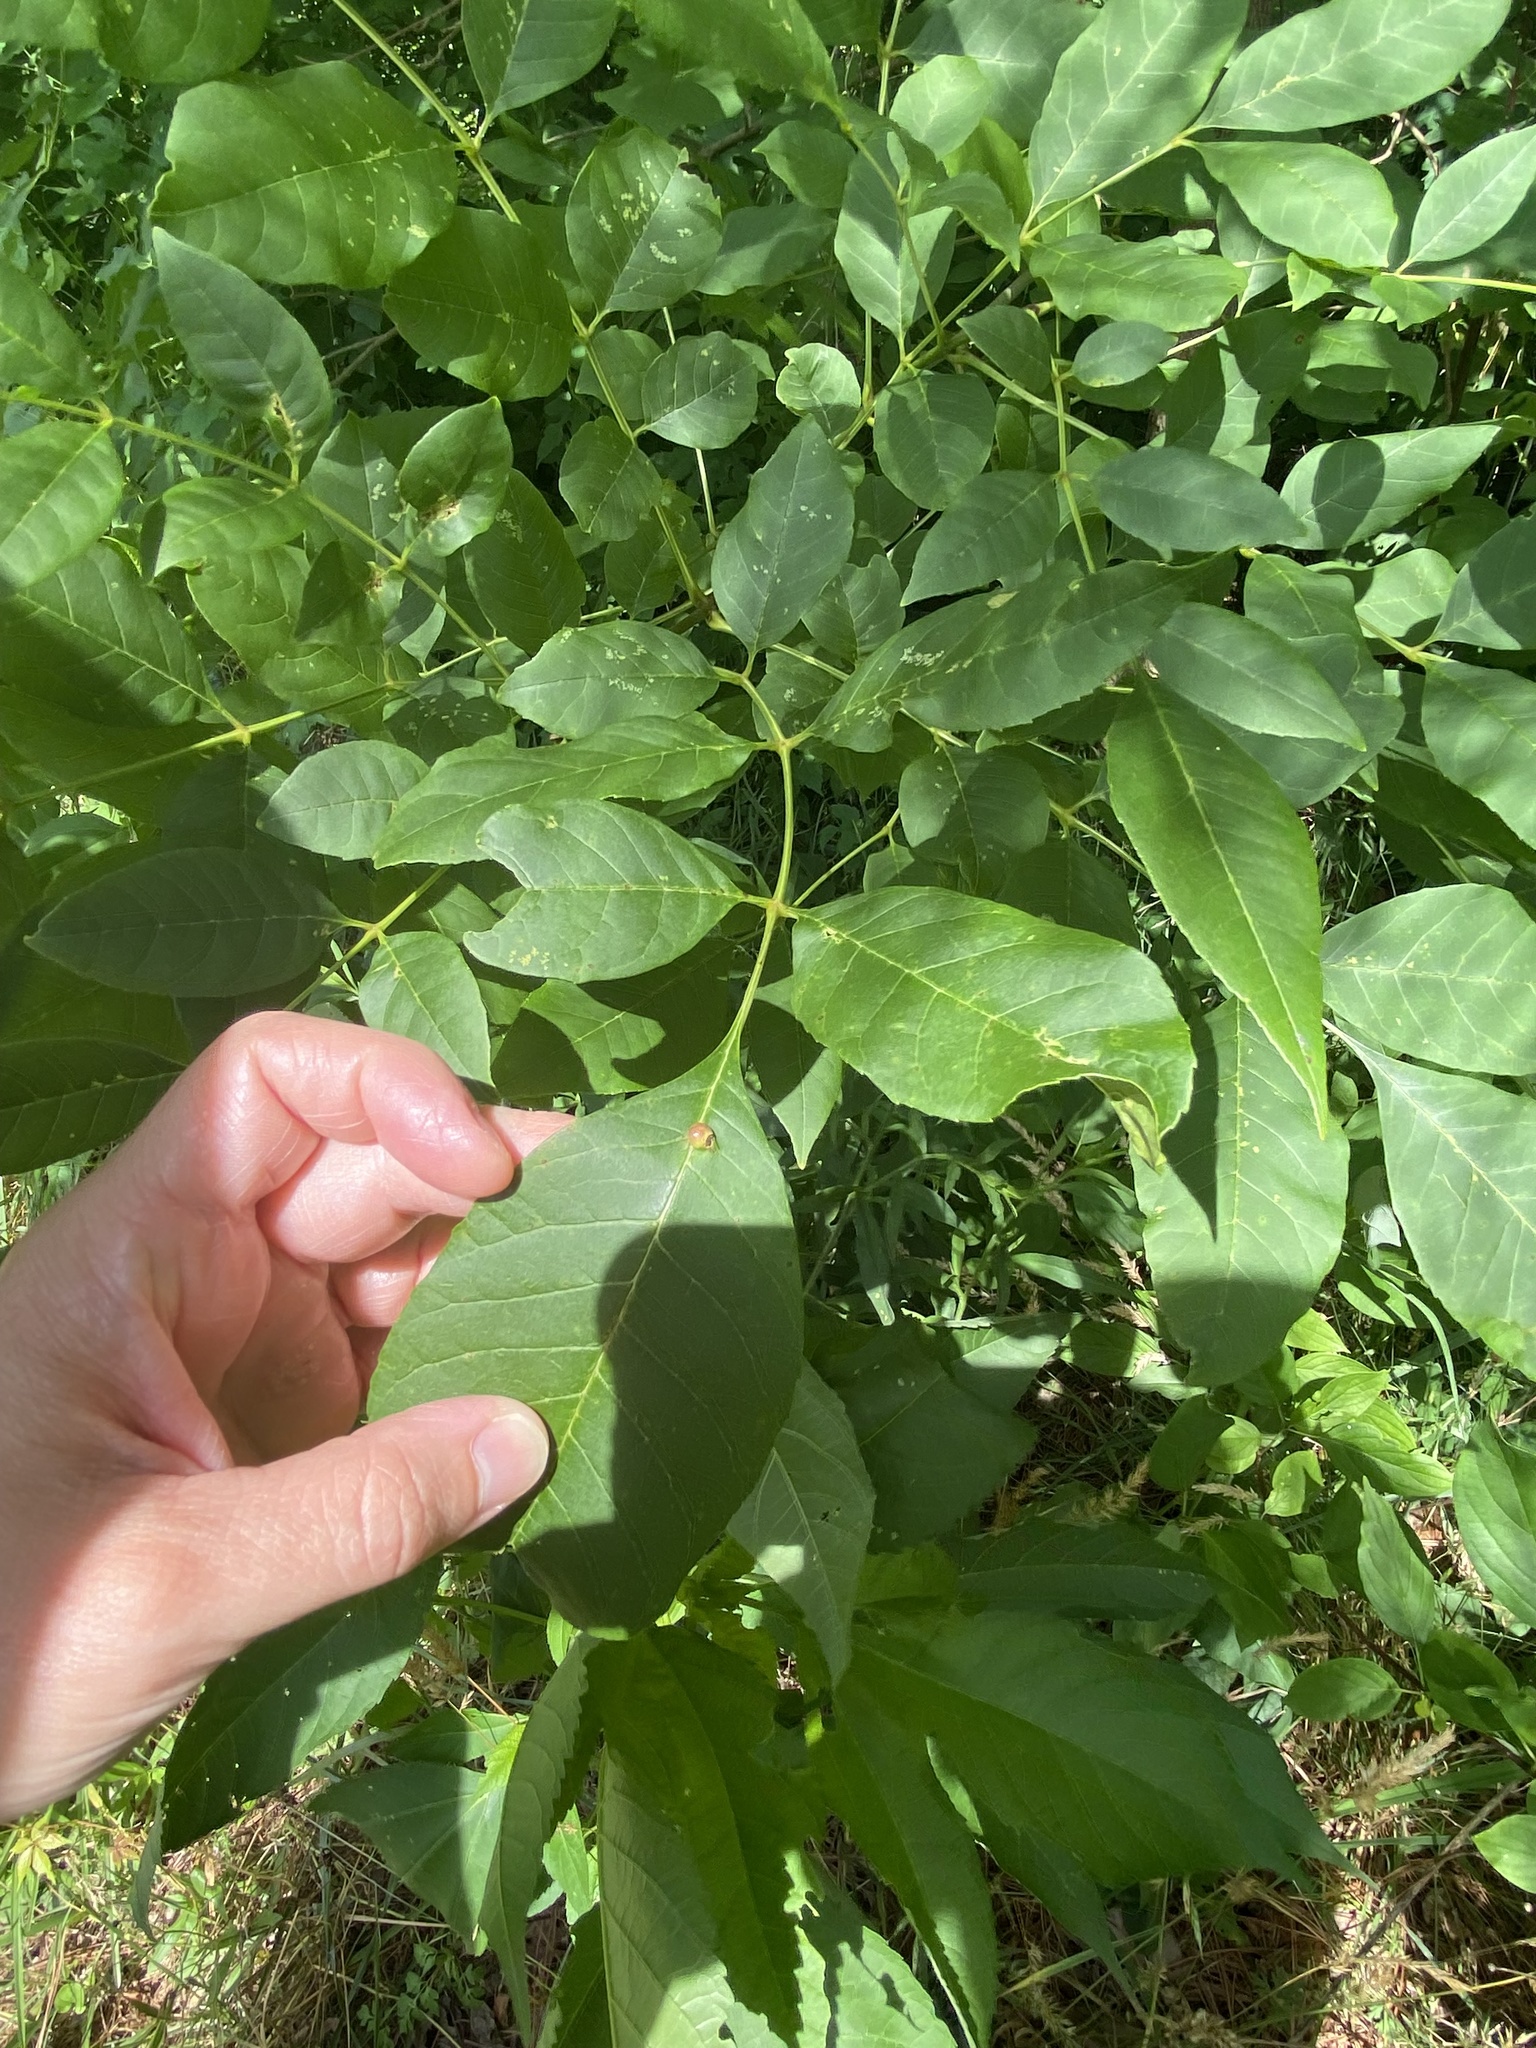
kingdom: Animalia
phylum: Arthropoda
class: Insecta
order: Diptera
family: Cecidomyiidae
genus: Dasineura
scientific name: Dasineura pellex
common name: Ash bullet gall midge
